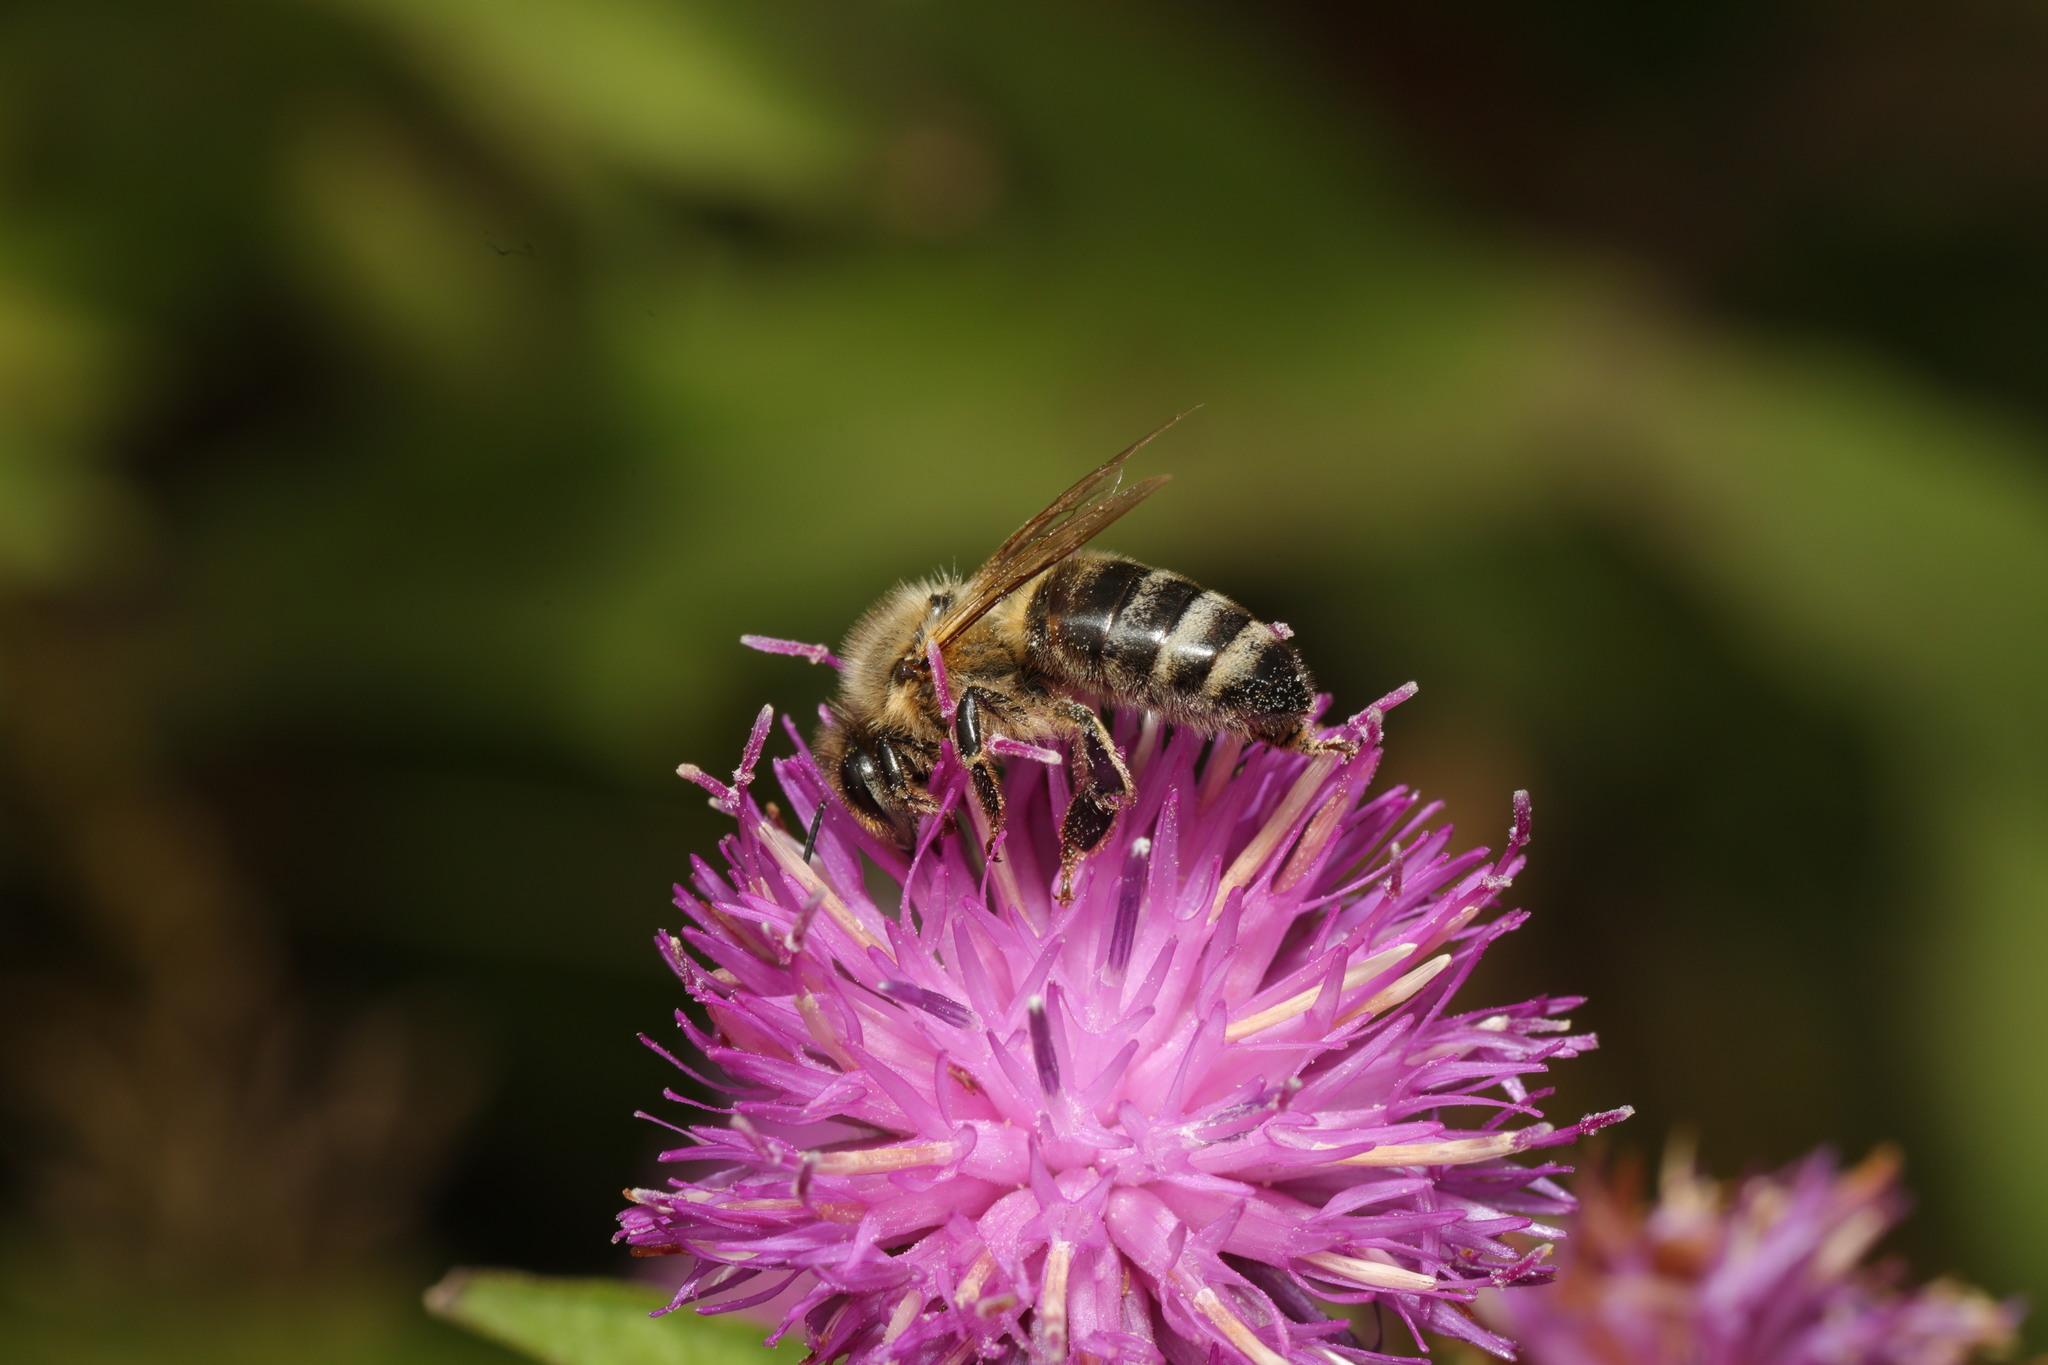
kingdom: Animalia
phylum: Arthropoda
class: Insecta
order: Hymenoptera
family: Apidae
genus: Apis
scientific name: Apis mellifera
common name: Honey bee
